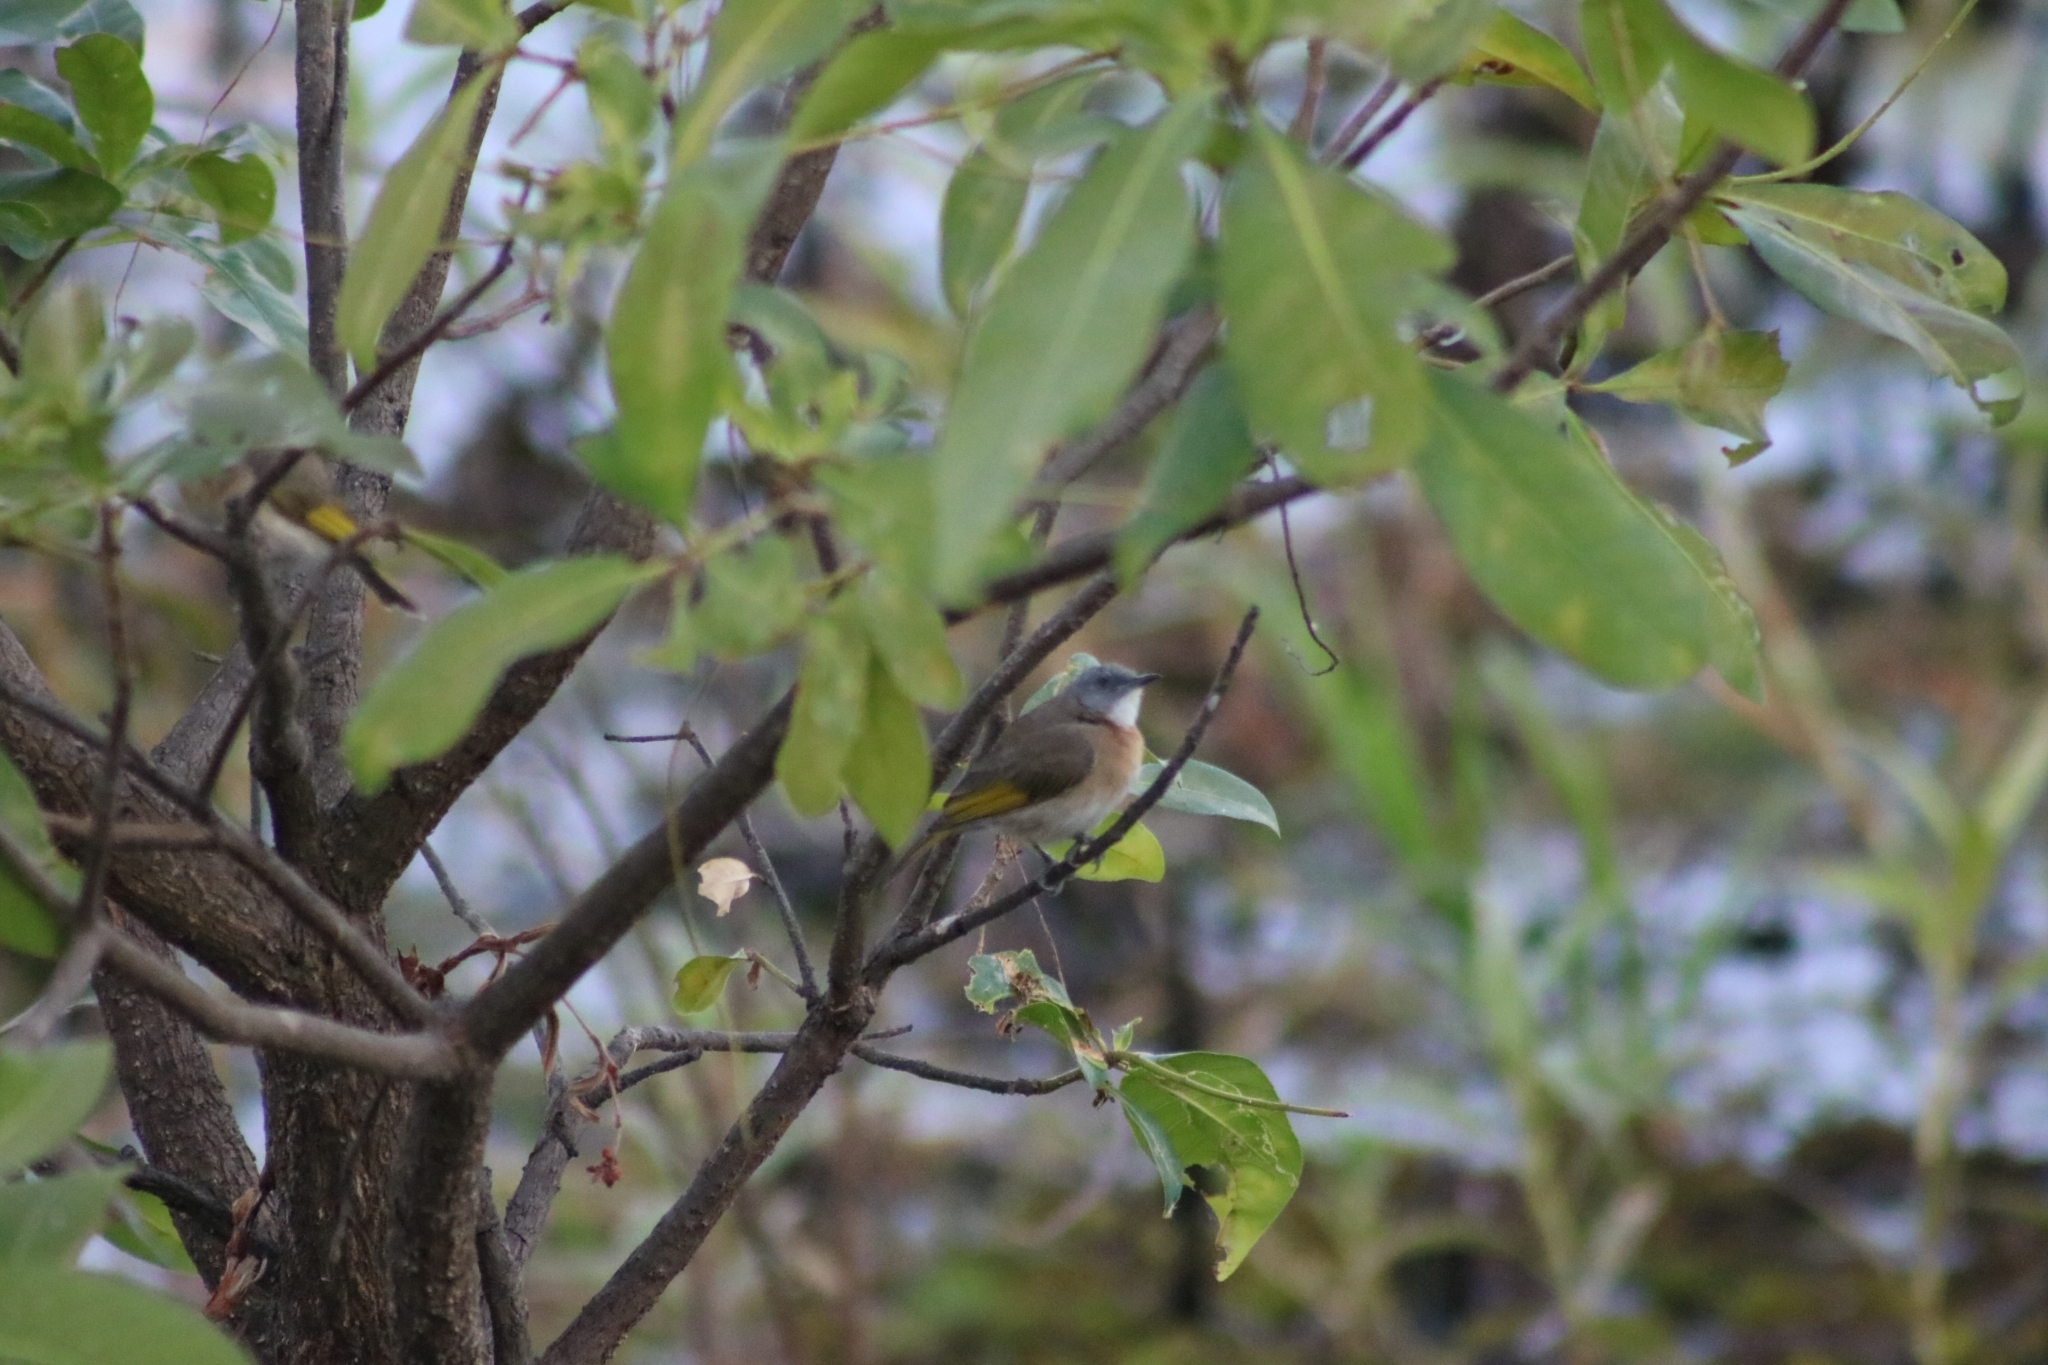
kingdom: Animalia
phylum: Chordata
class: Aves
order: Passeriformes
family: Meliphagidae
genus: Conopophila
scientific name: Conopophila albogularis
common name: Rufous-banded honeyeater
